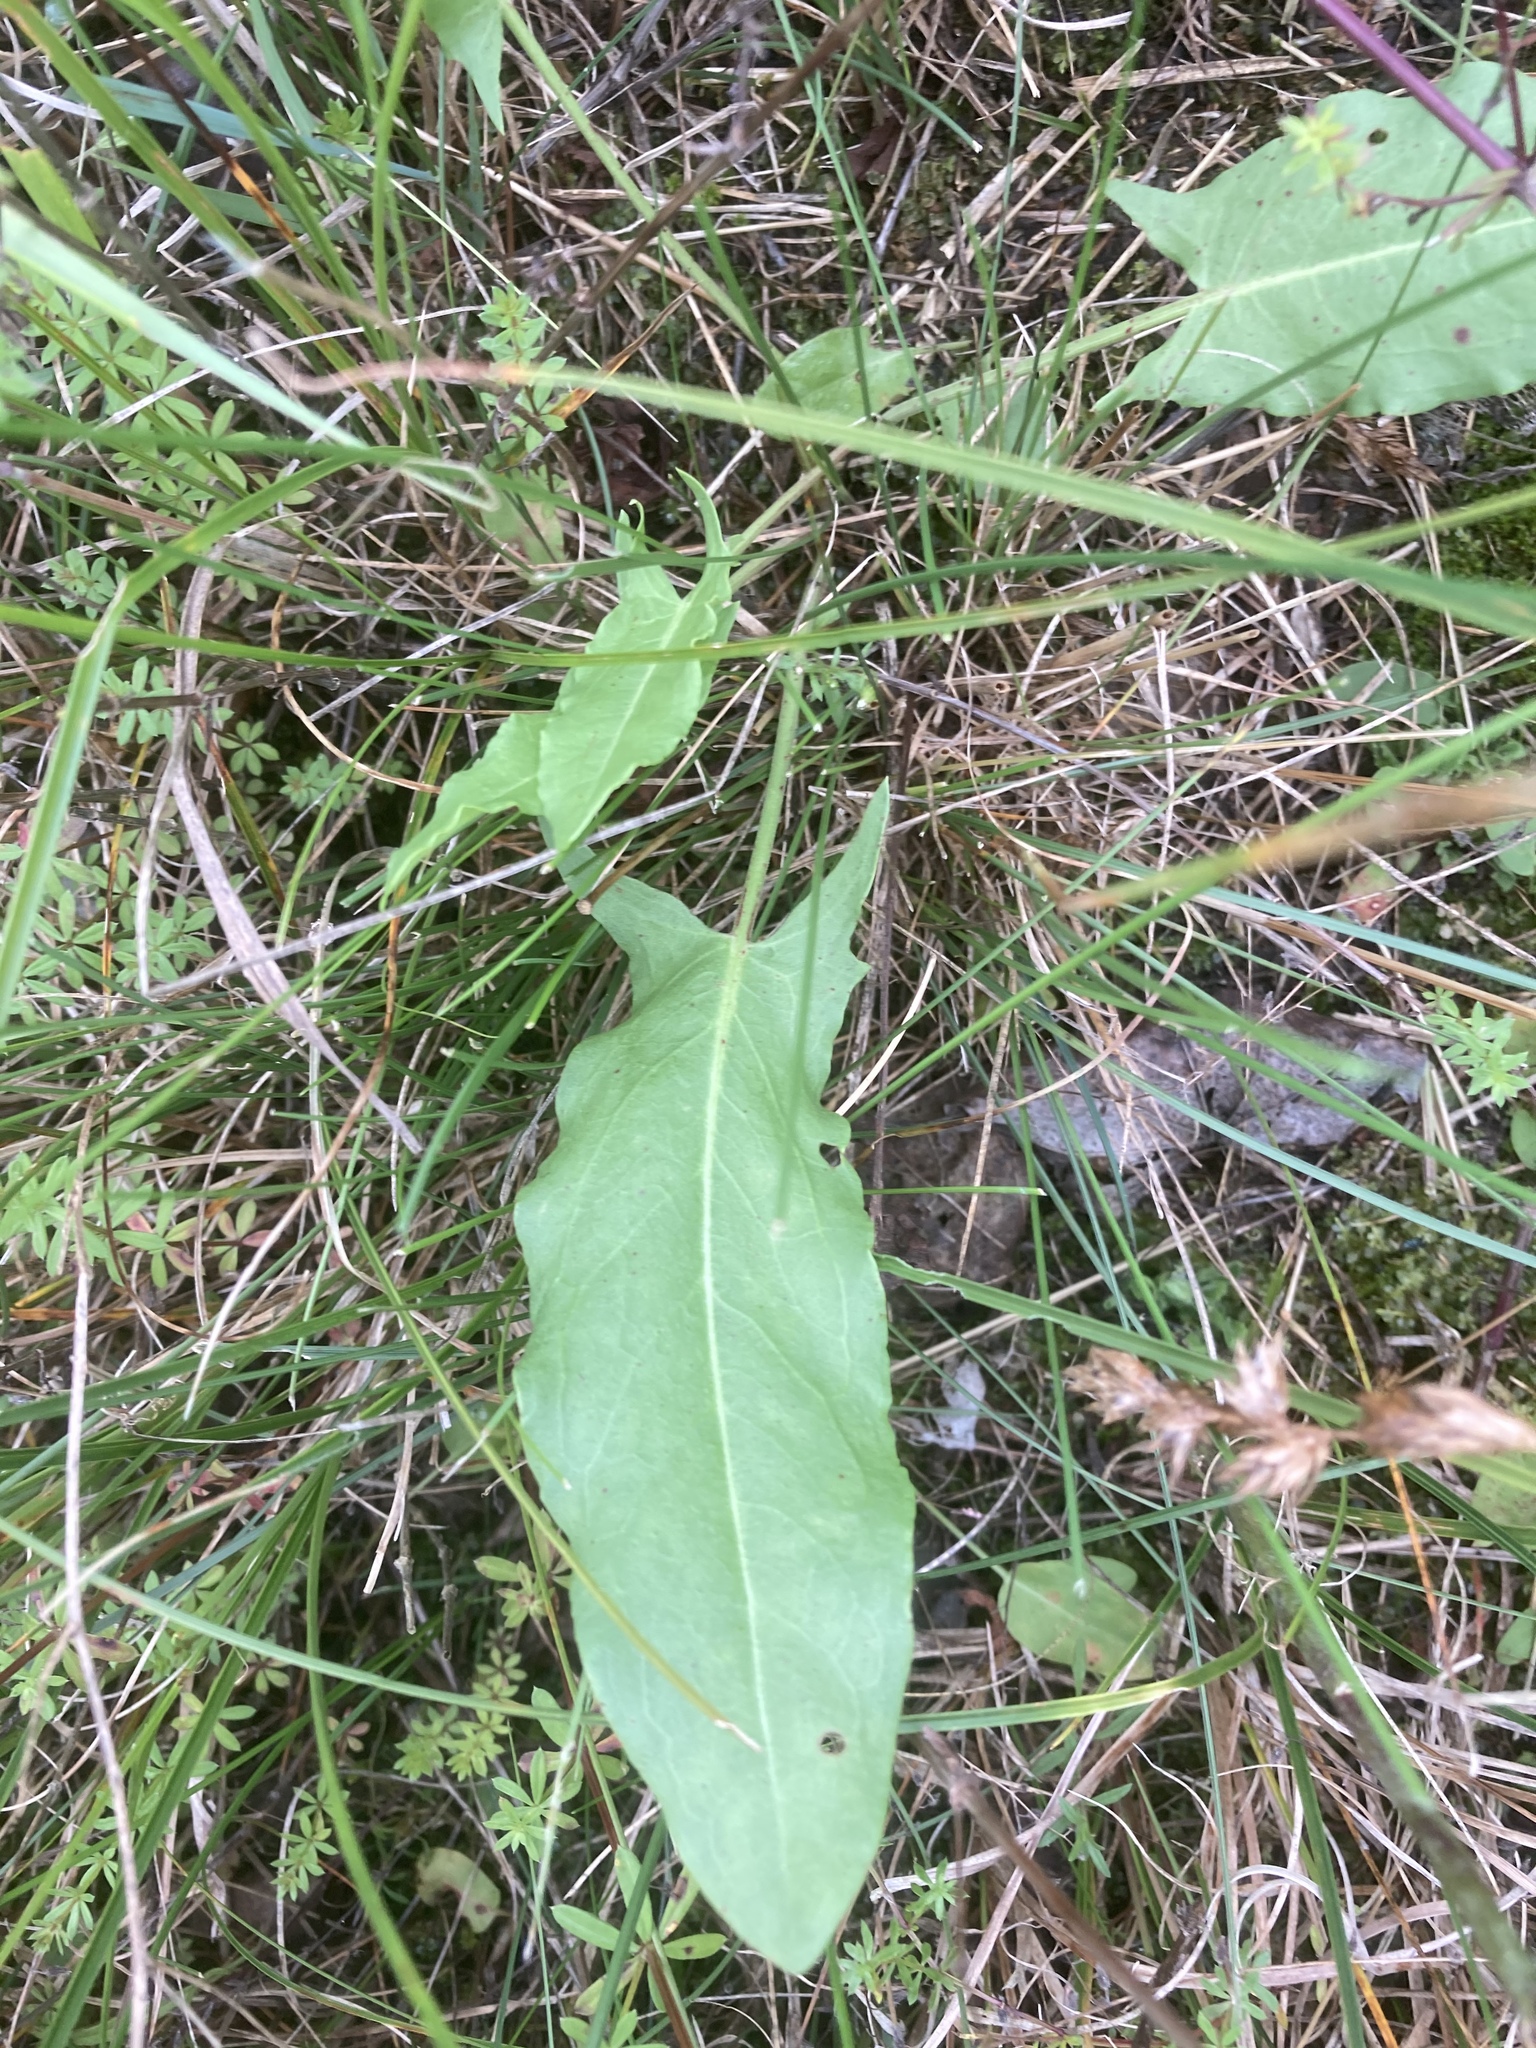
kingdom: Plantae
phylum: Tracheophyta
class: Magnoliopsida
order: Caryophyllales
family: Polygonaceae
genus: Rumex
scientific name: Rumex thyrsiflorus
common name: Garden sorrel
